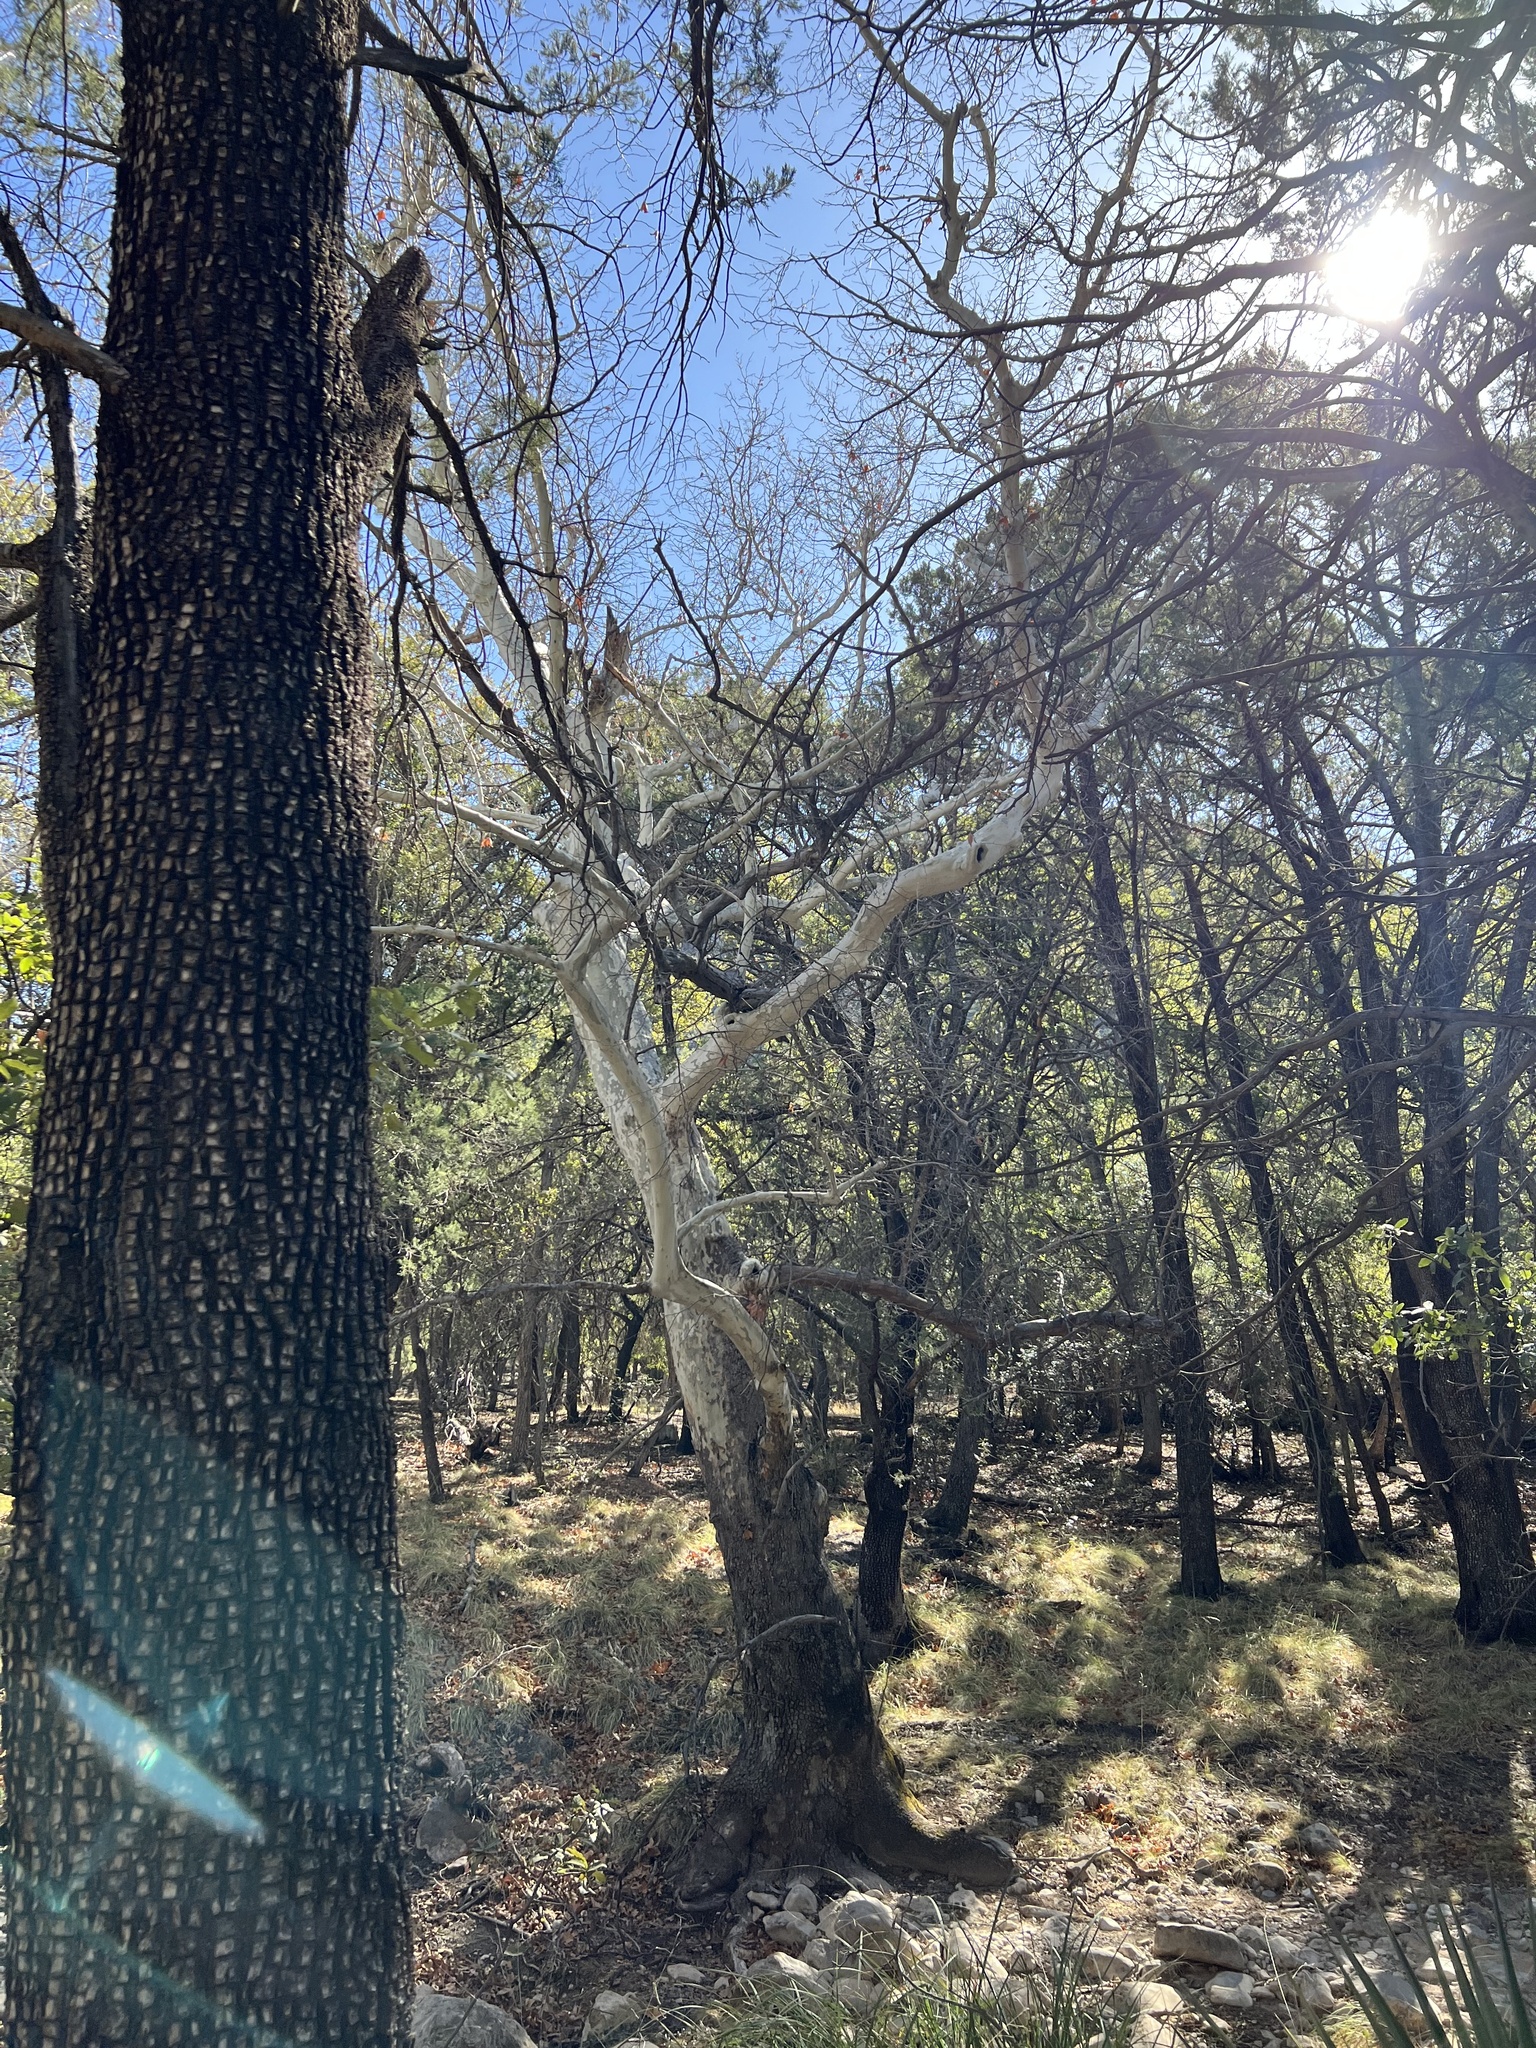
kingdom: Plantae
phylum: Tracheophyta
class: Magnoliopsida
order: Proteales
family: Platanaceae
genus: Platanus
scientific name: Platanus wrightii
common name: Arizona sycamore
